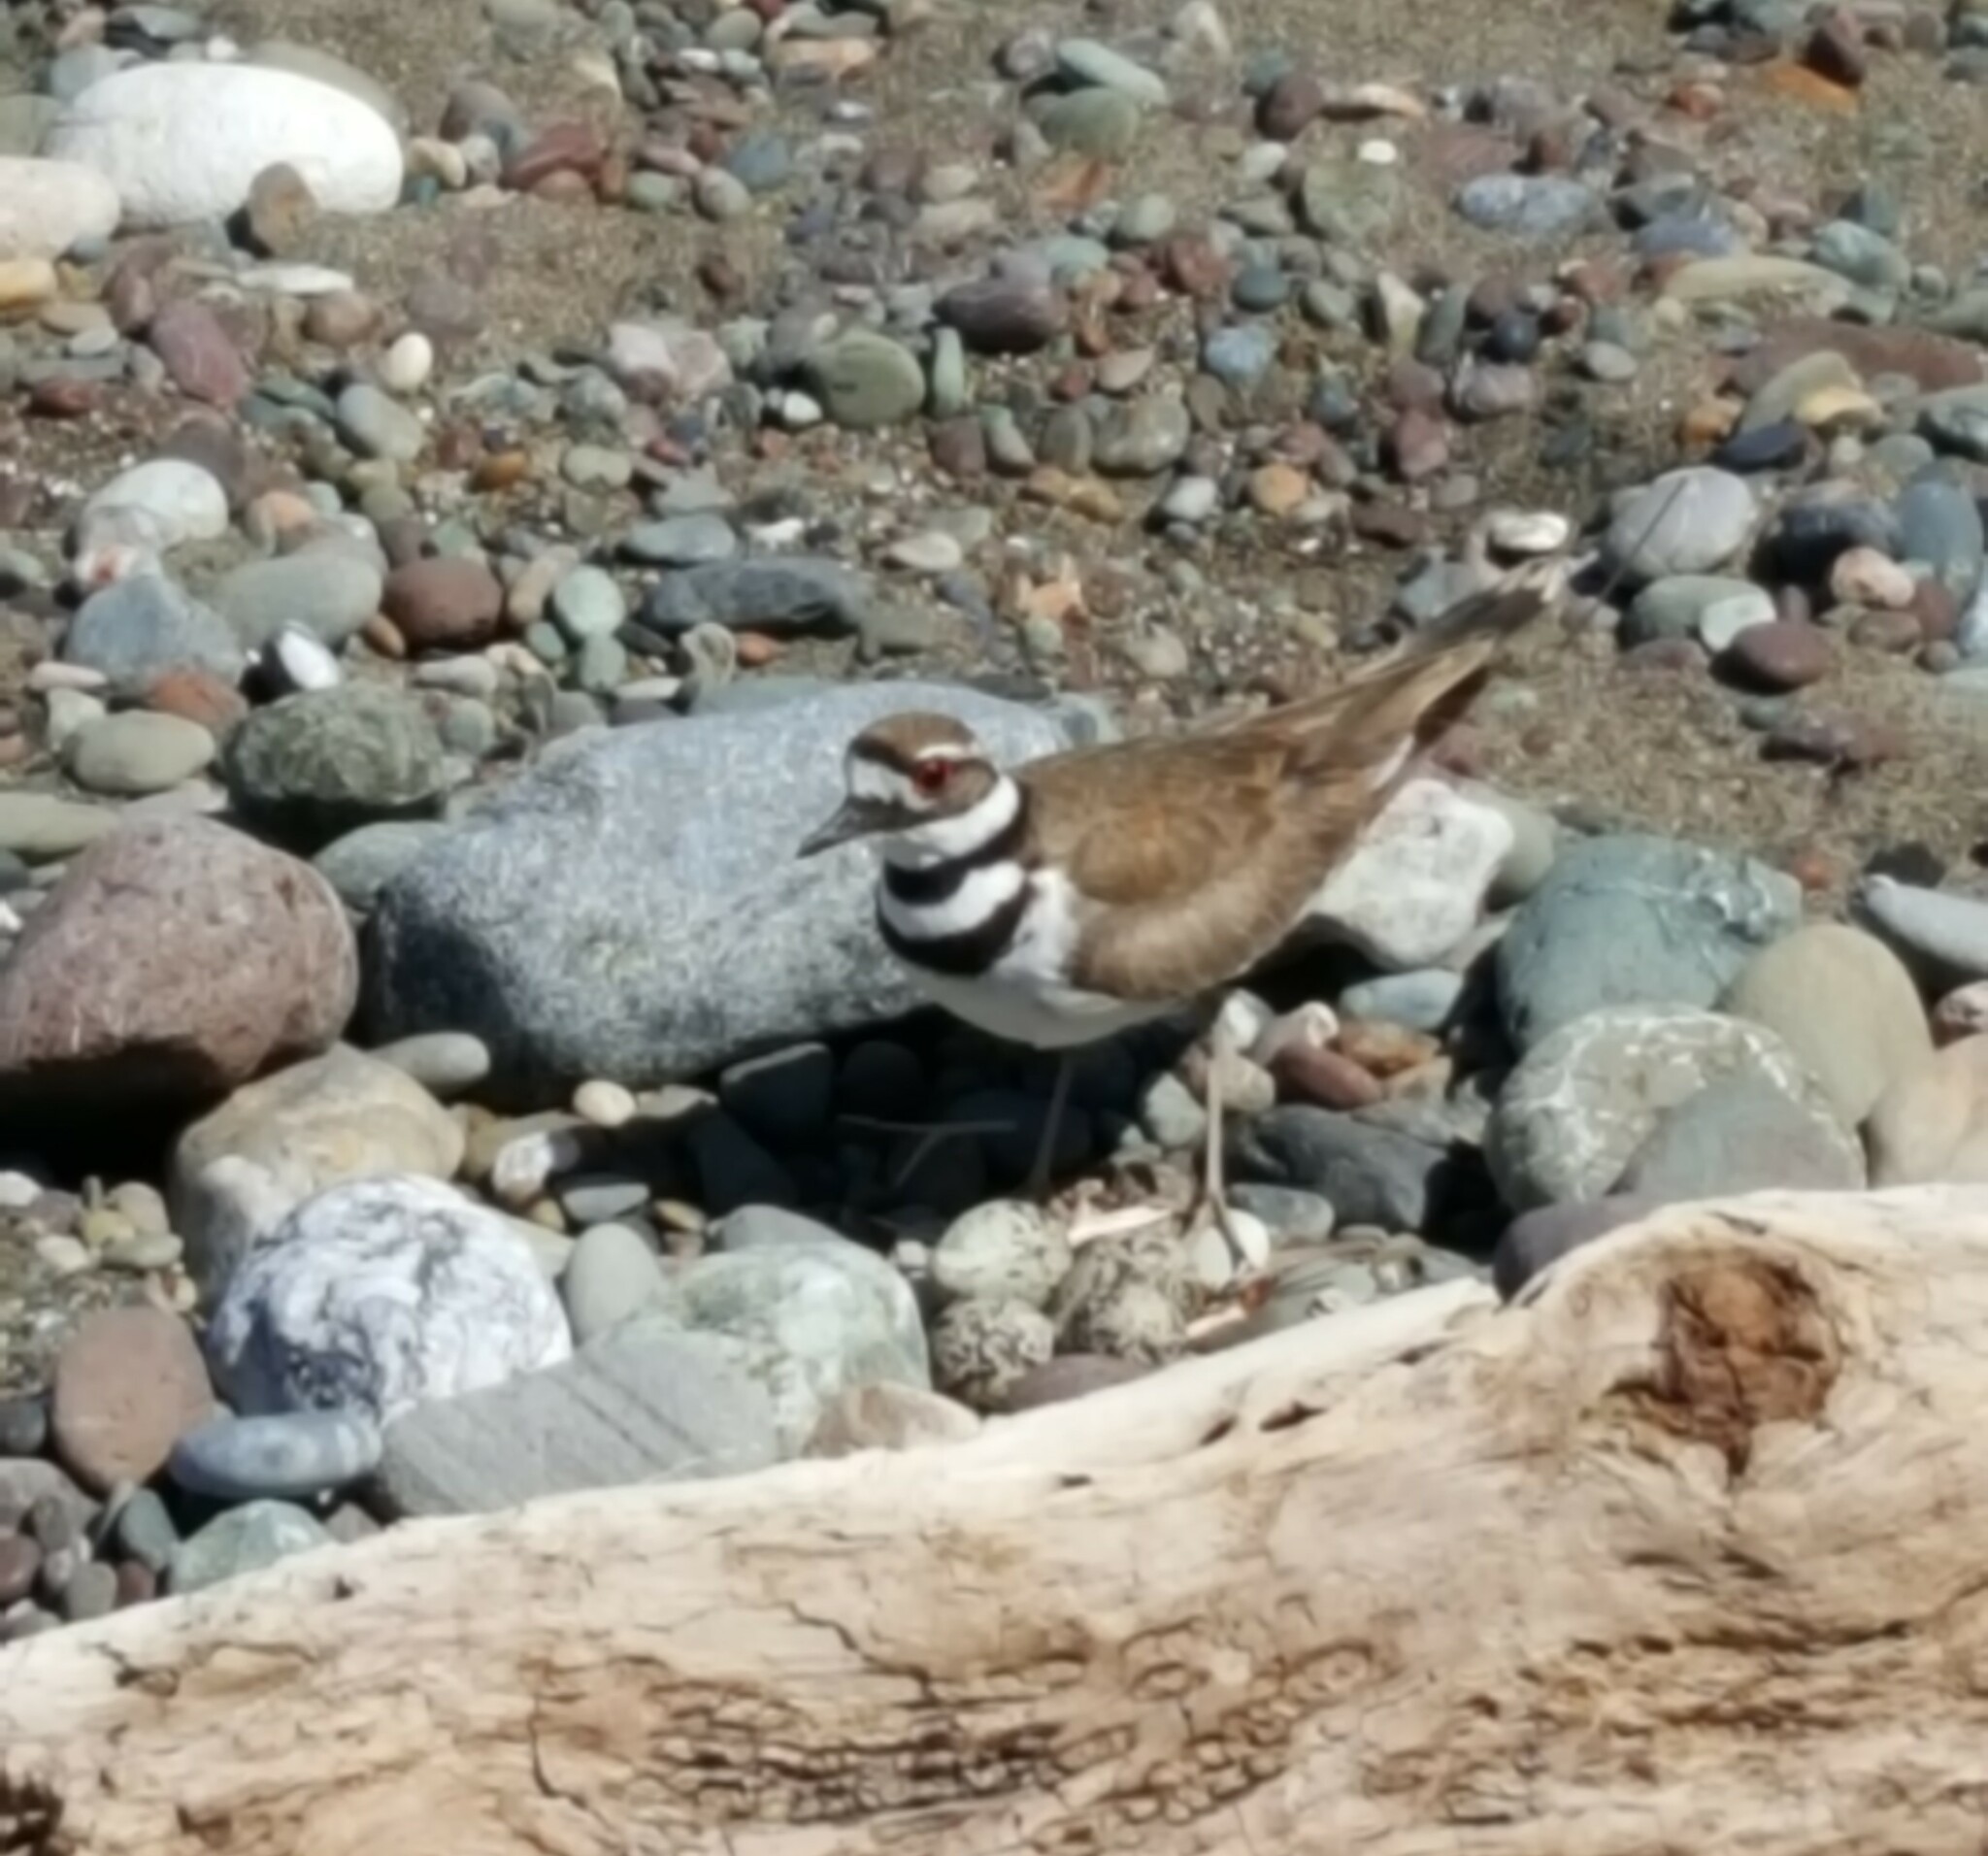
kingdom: Animalia
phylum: Chordata
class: Aves
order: Charadriiformes
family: Charadriidae
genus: Charadrius
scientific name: Charadrius vociferus
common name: Killdeer
